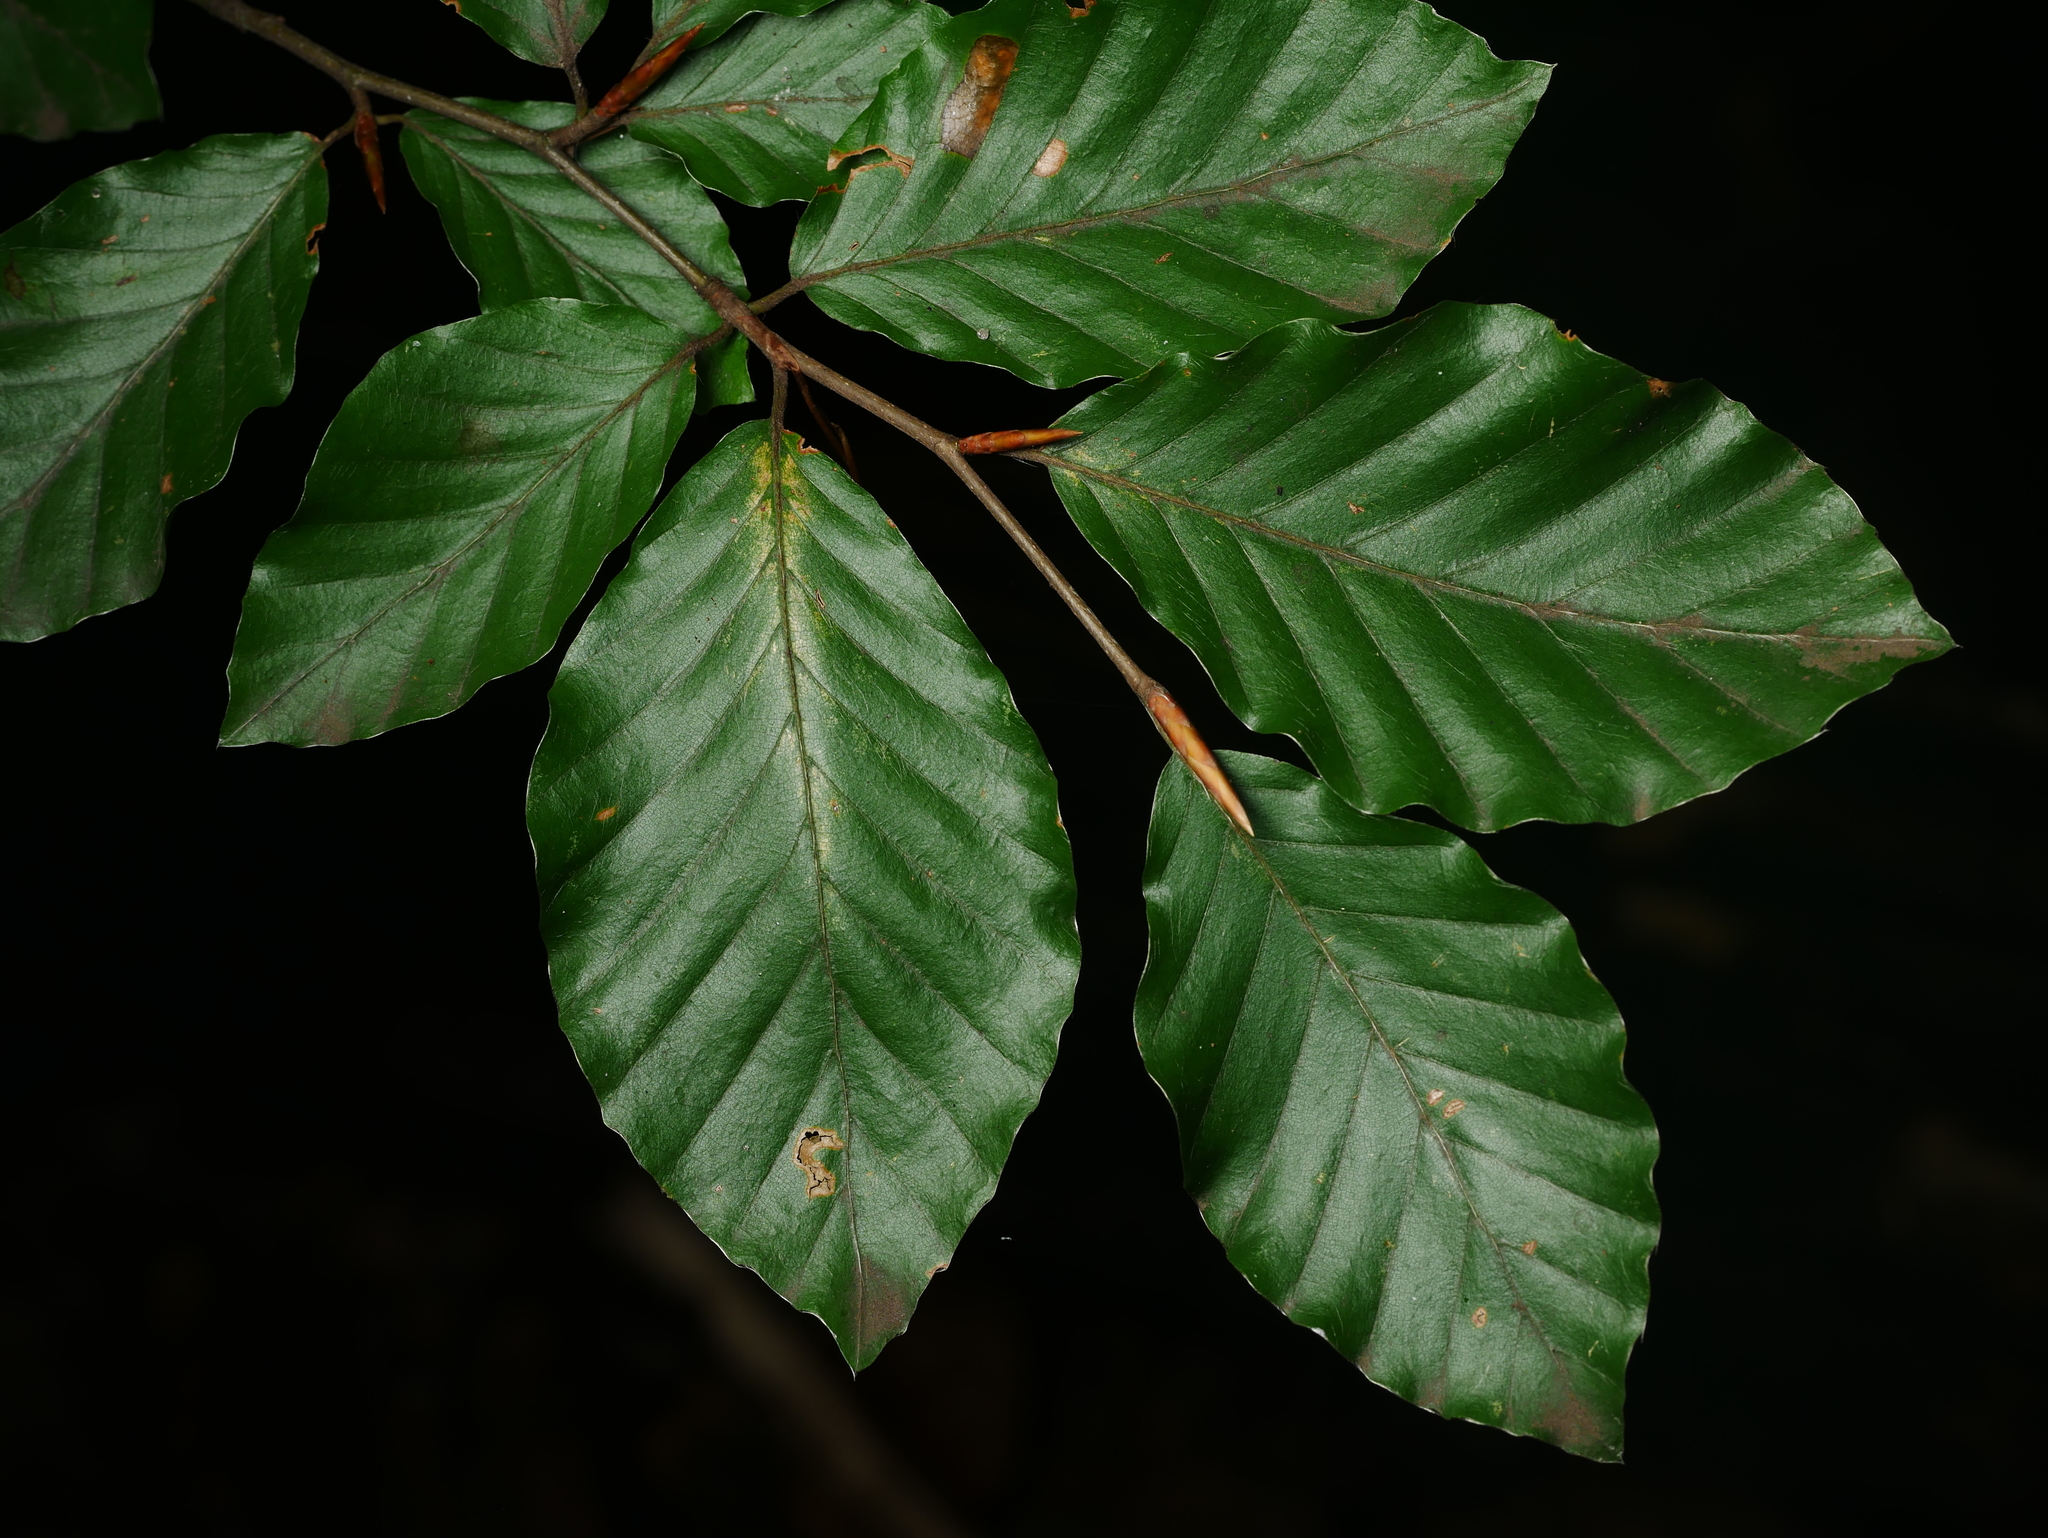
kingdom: Plantae
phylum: Tracheophyta
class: Magnoliopsida
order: Fagales
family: Fagaceae
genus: Fagus
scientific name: Fagus sylvatica
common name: Beech
